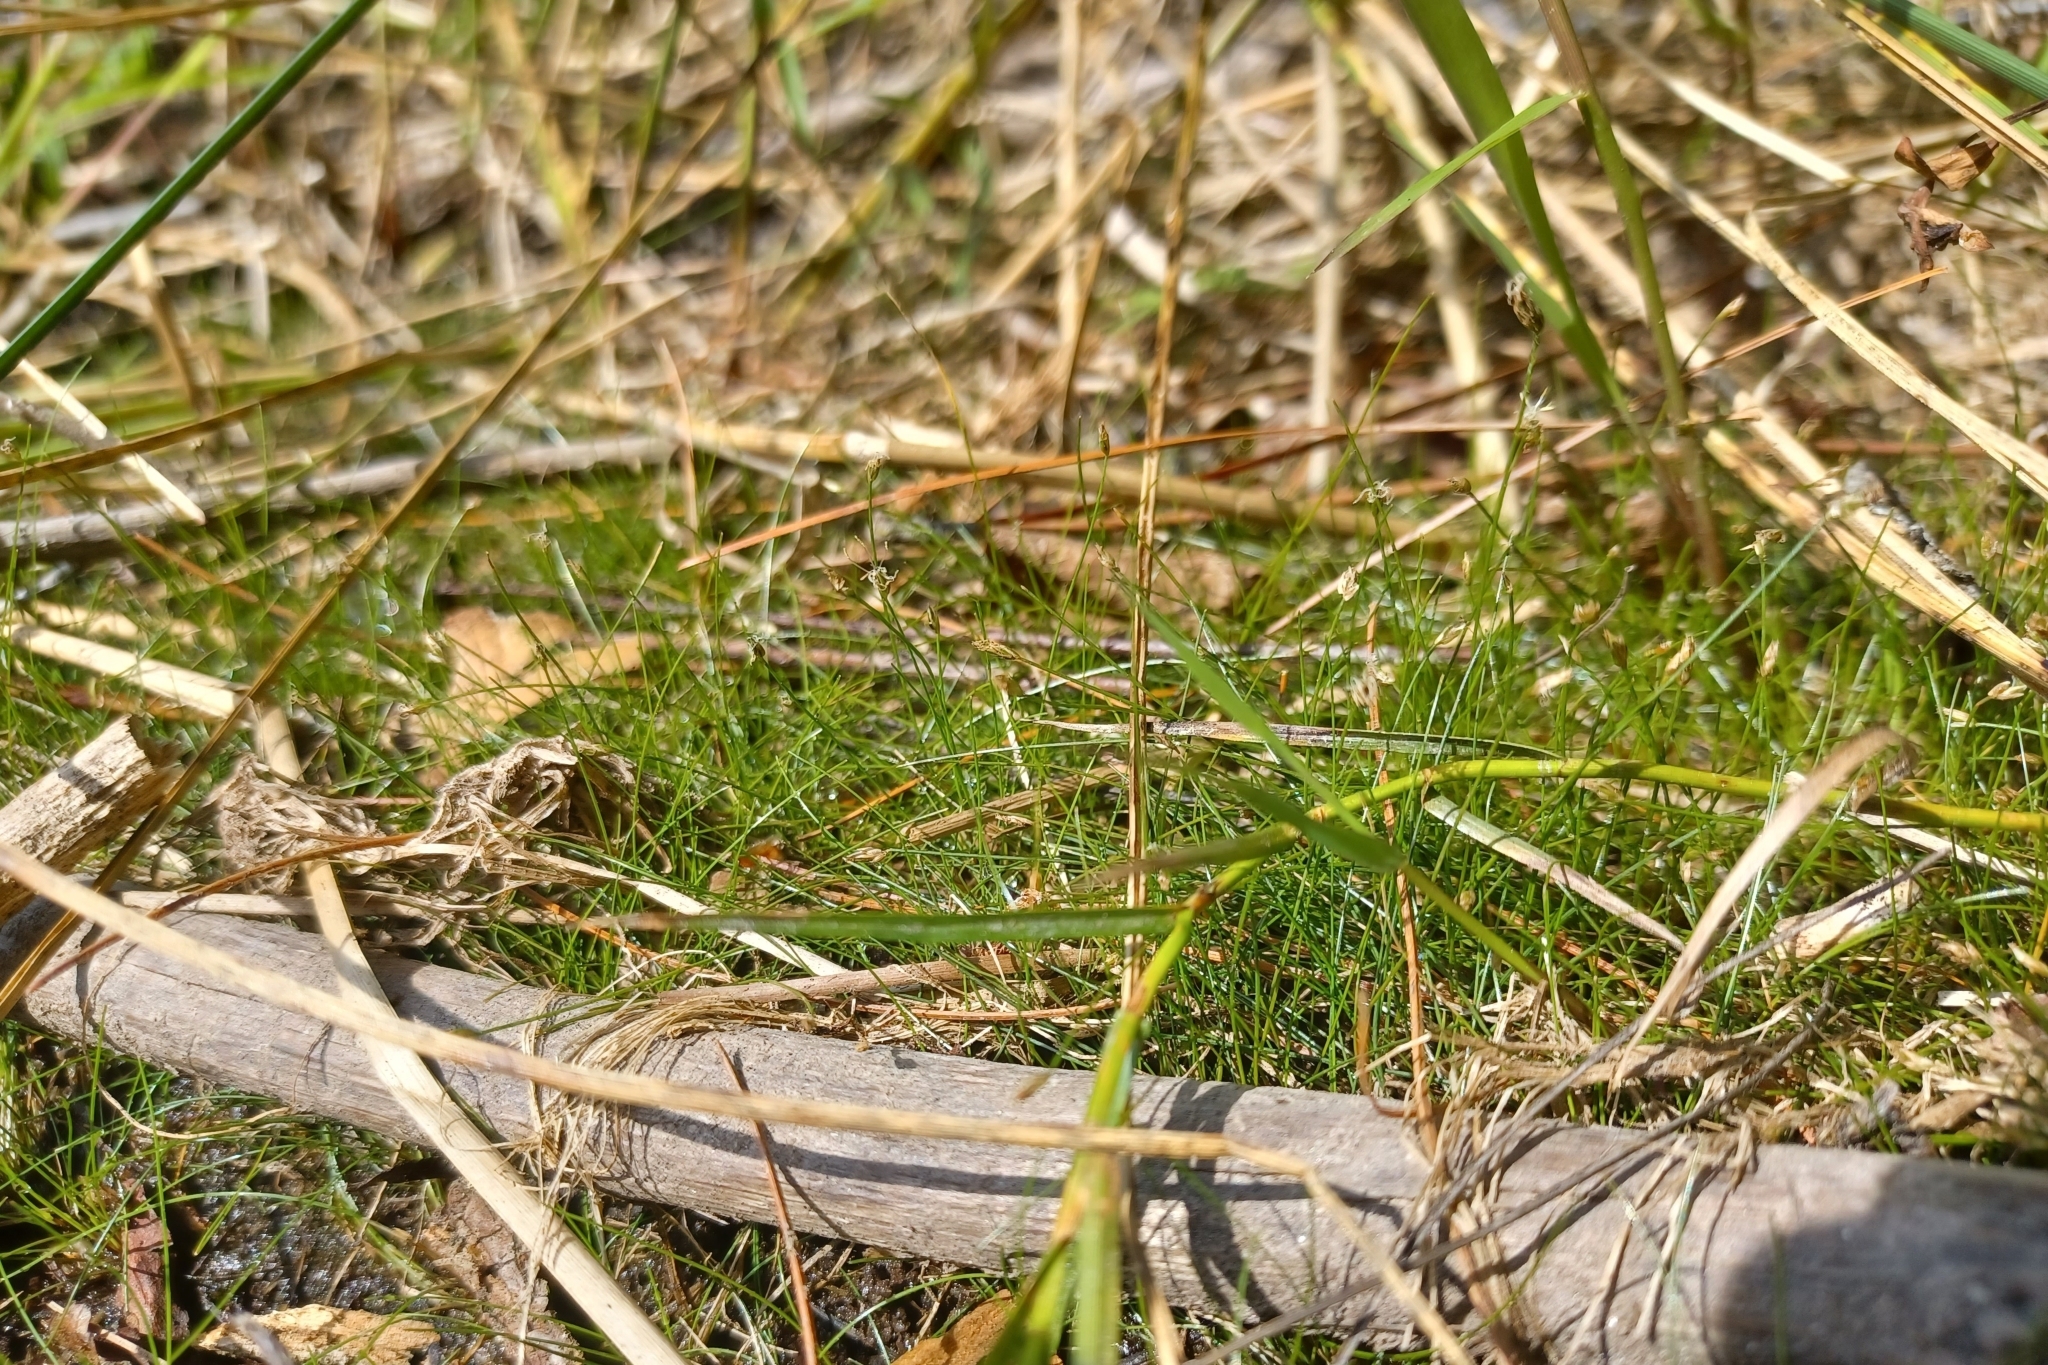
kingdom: Plantae
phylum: Tracheophyta
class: Liliopsida
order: Poales
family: Cyperaceae
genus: Eleocharis
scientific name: Eleocharis acicularis
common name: Needle spike-rush
